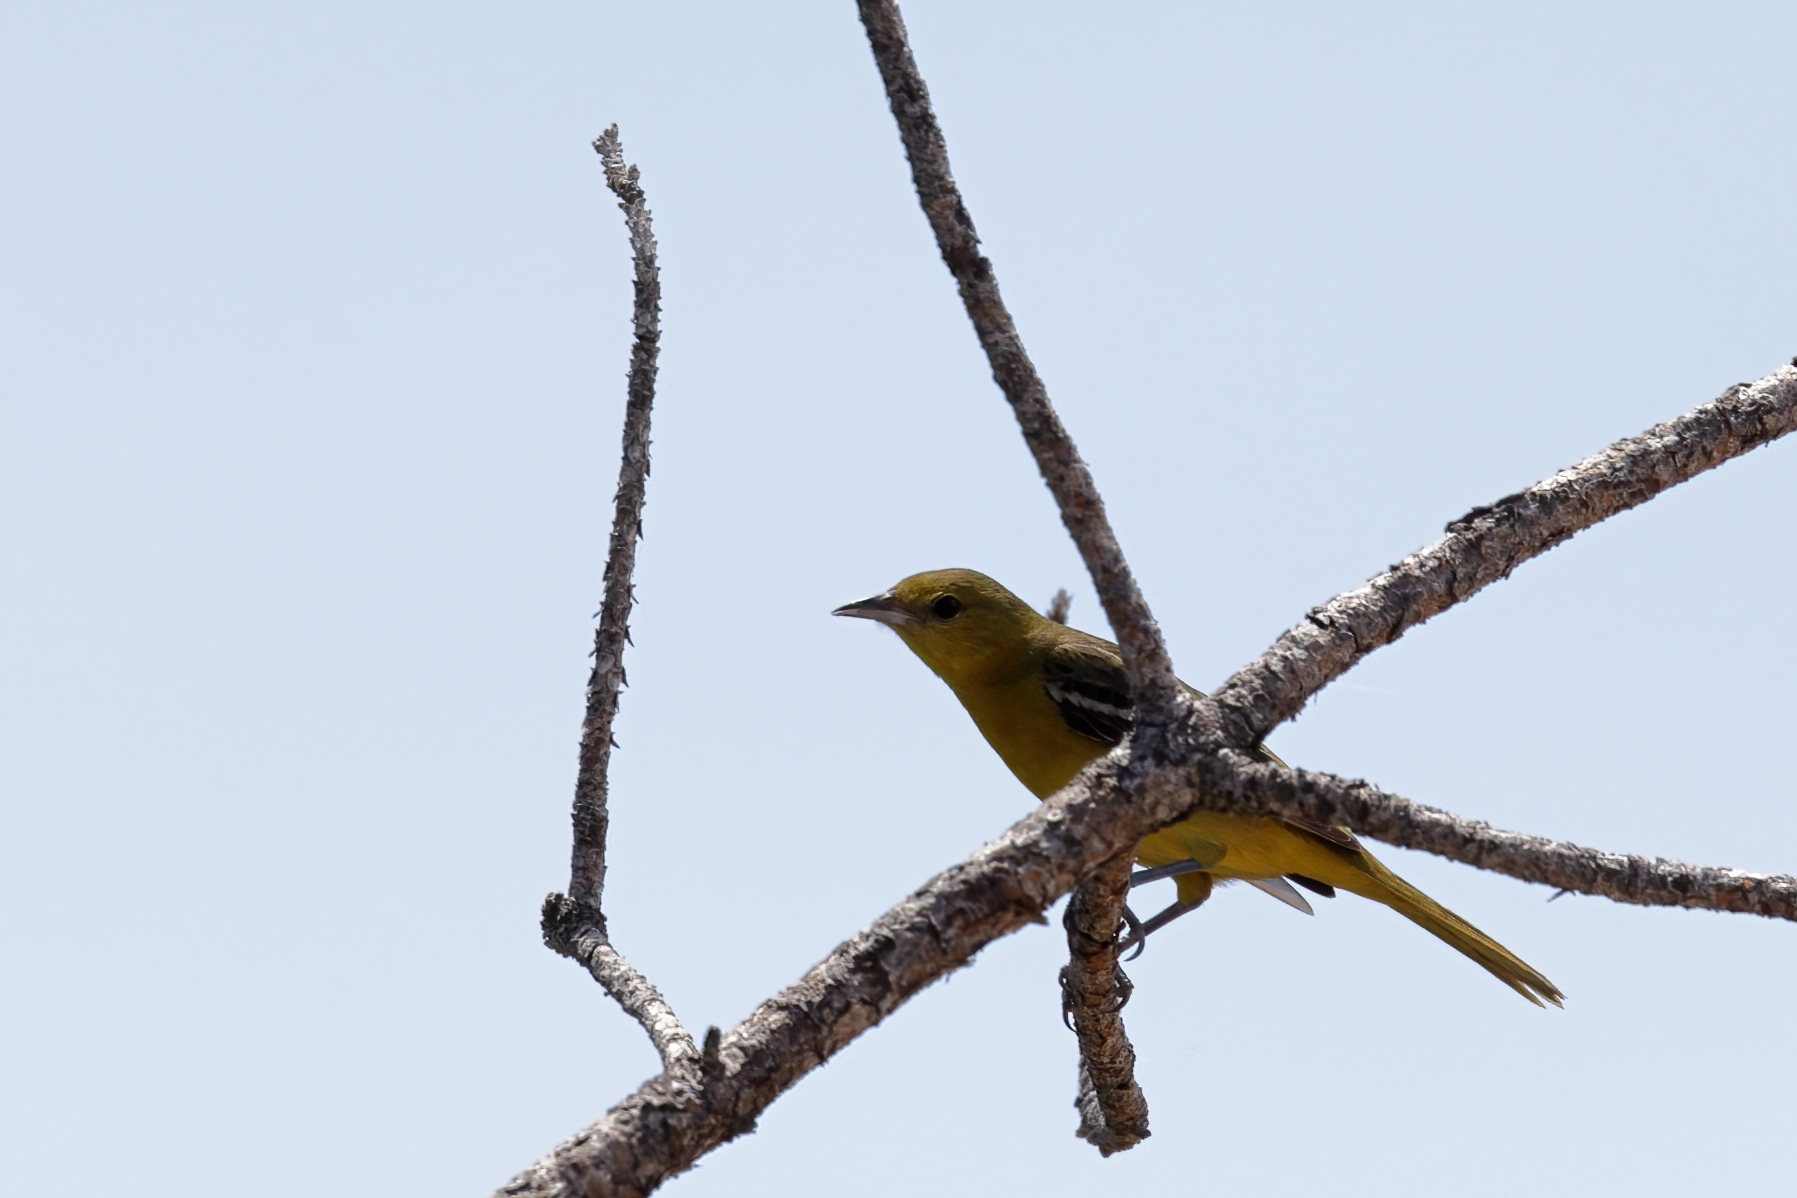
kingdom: Animalia
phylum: Chordata
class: Aves
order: Passeriformes
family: Icteridae
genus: Icterus
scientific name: Icterus spurius
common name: Orchard oriole
